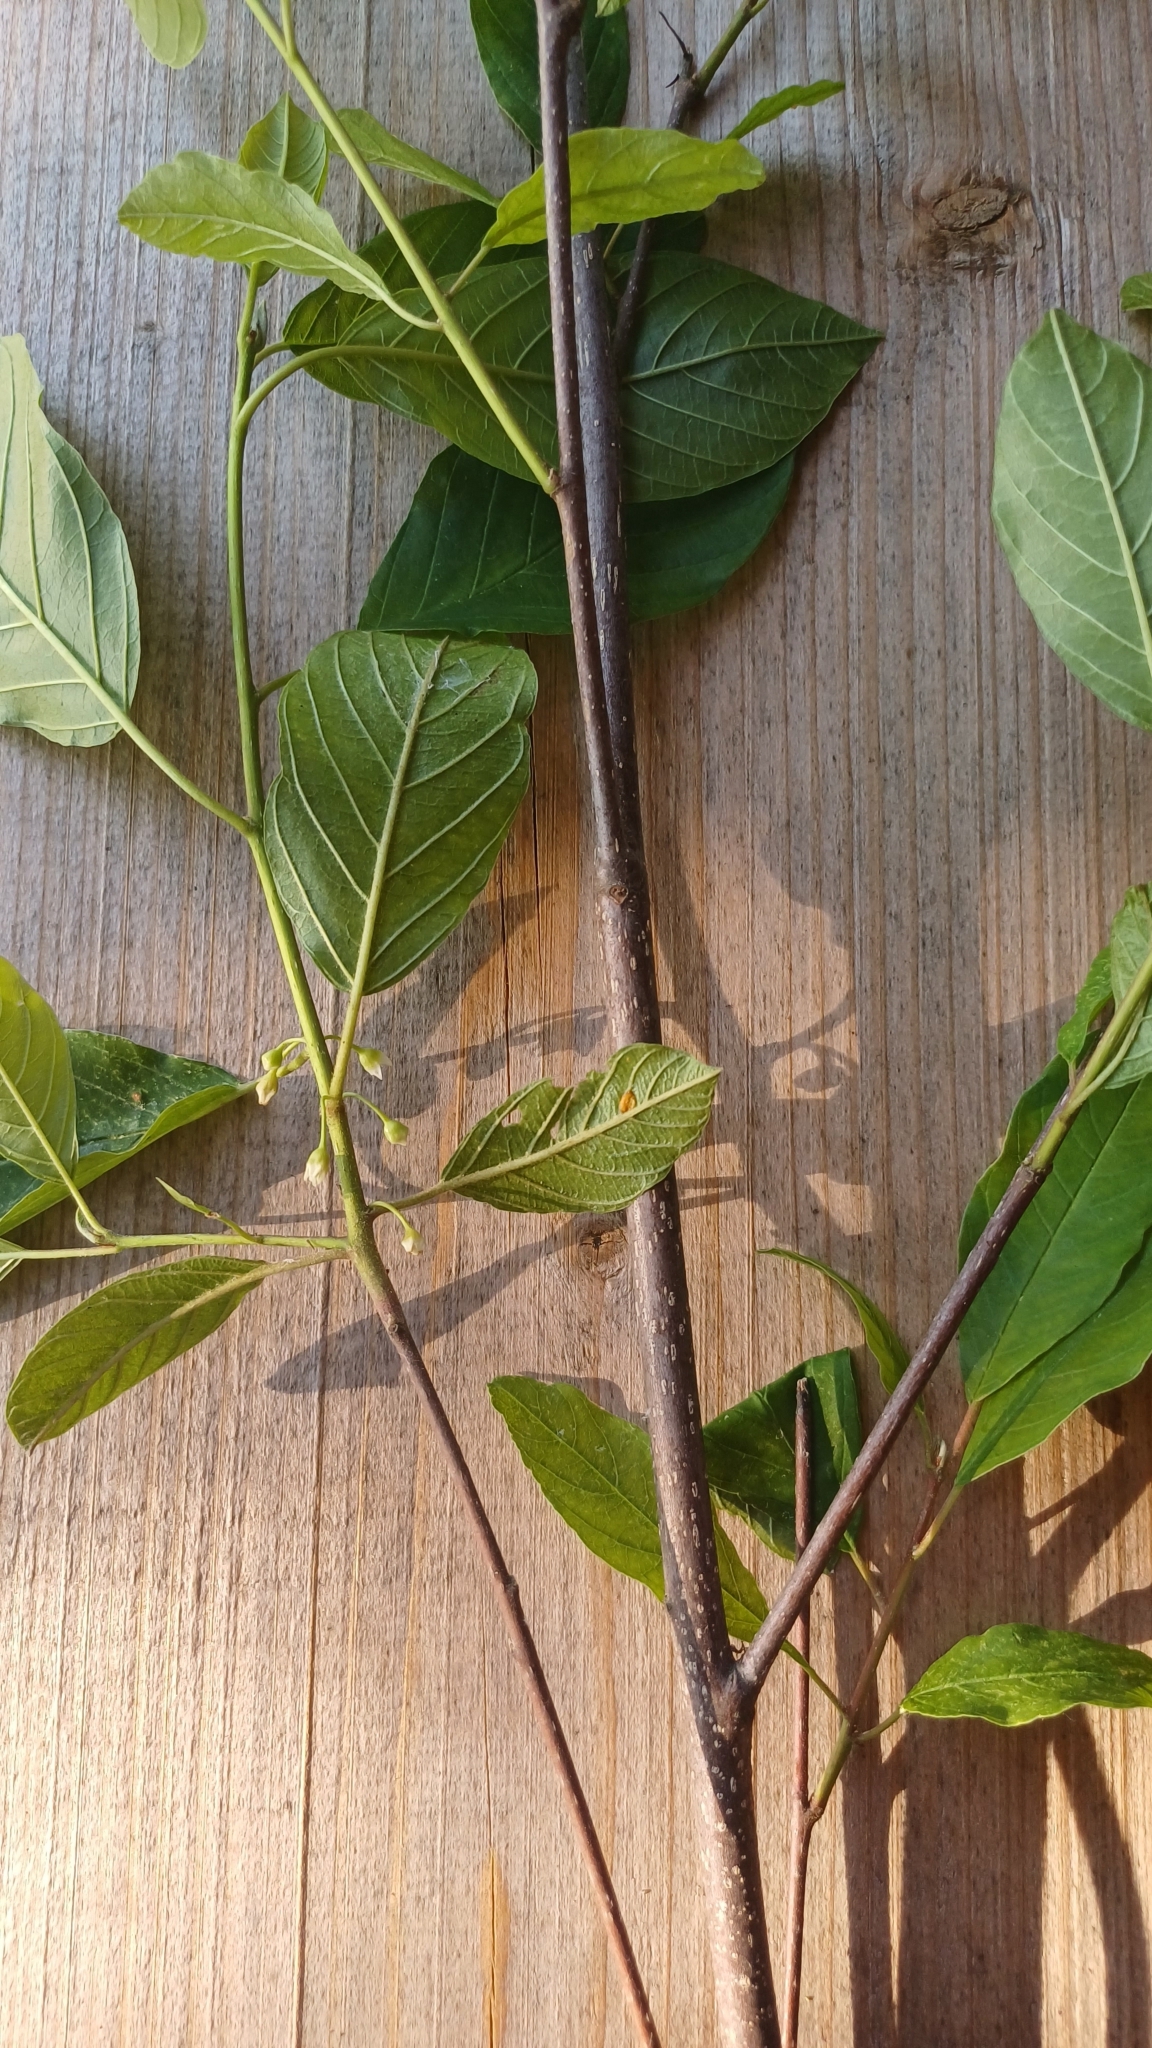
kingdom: Plantae
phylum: Tracheophyta
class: Magnoliopsida
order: Rosales
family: Rhamnaceae
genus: Frangula
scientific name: Frangula alnus
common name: Alder buckthorn
